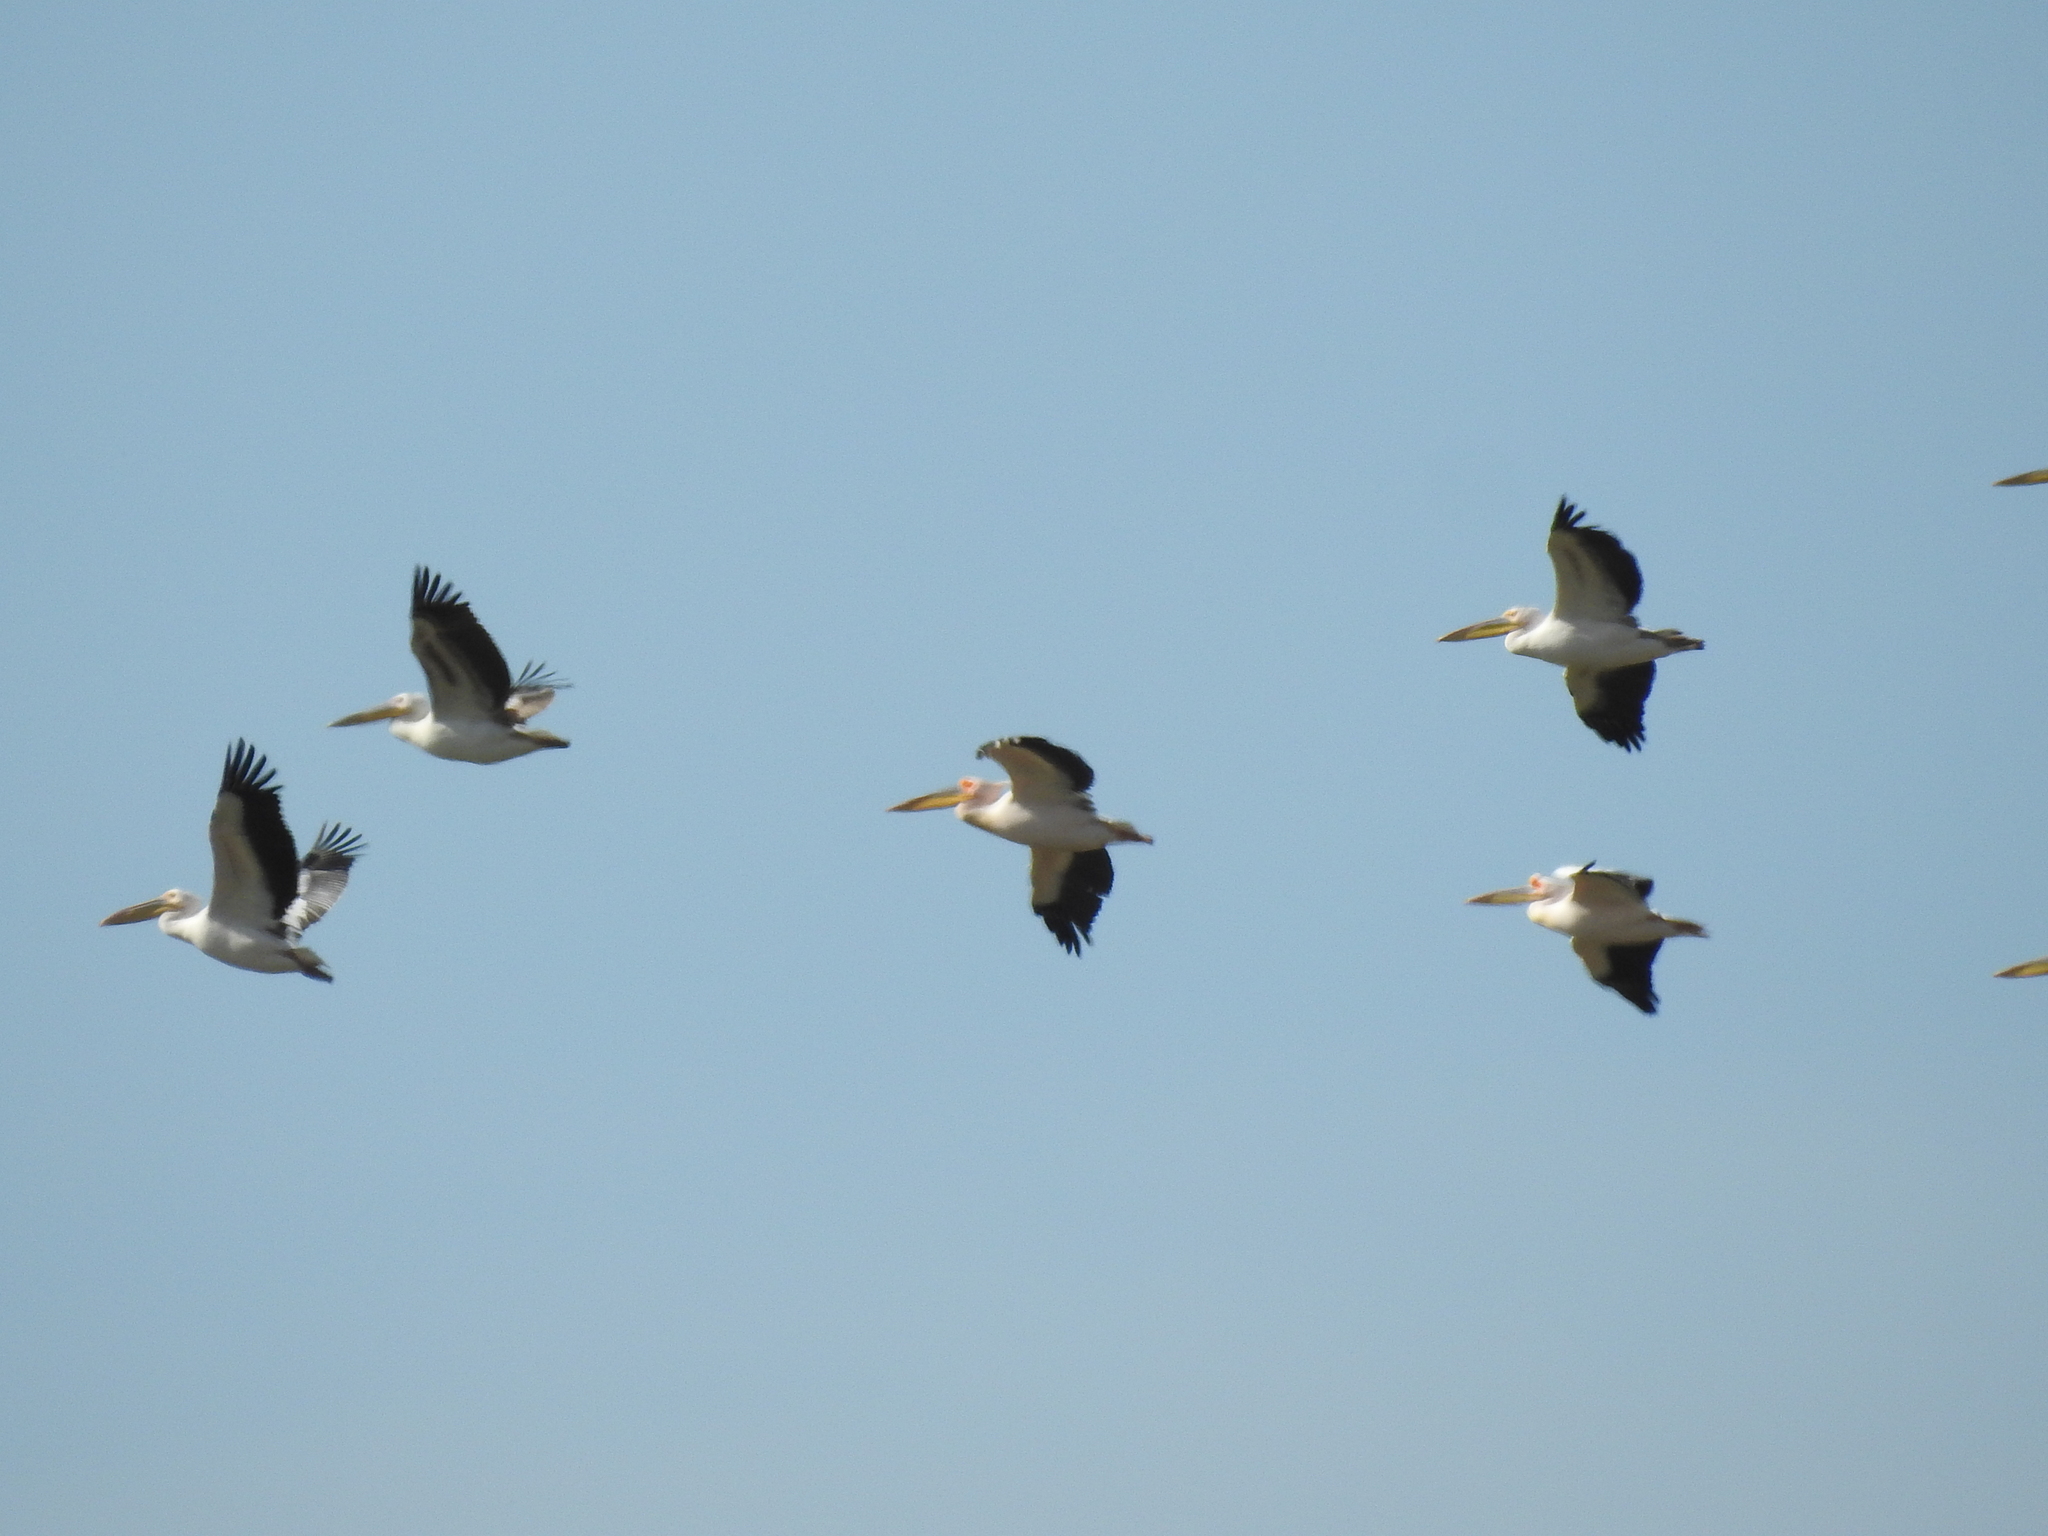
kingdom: Animalia
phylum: Chordata
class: Aves
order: Pelecaniformes
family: Pelecanidae
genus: Pelecanus
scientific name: Pelecanus onocrotalus
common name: Great white pelican
